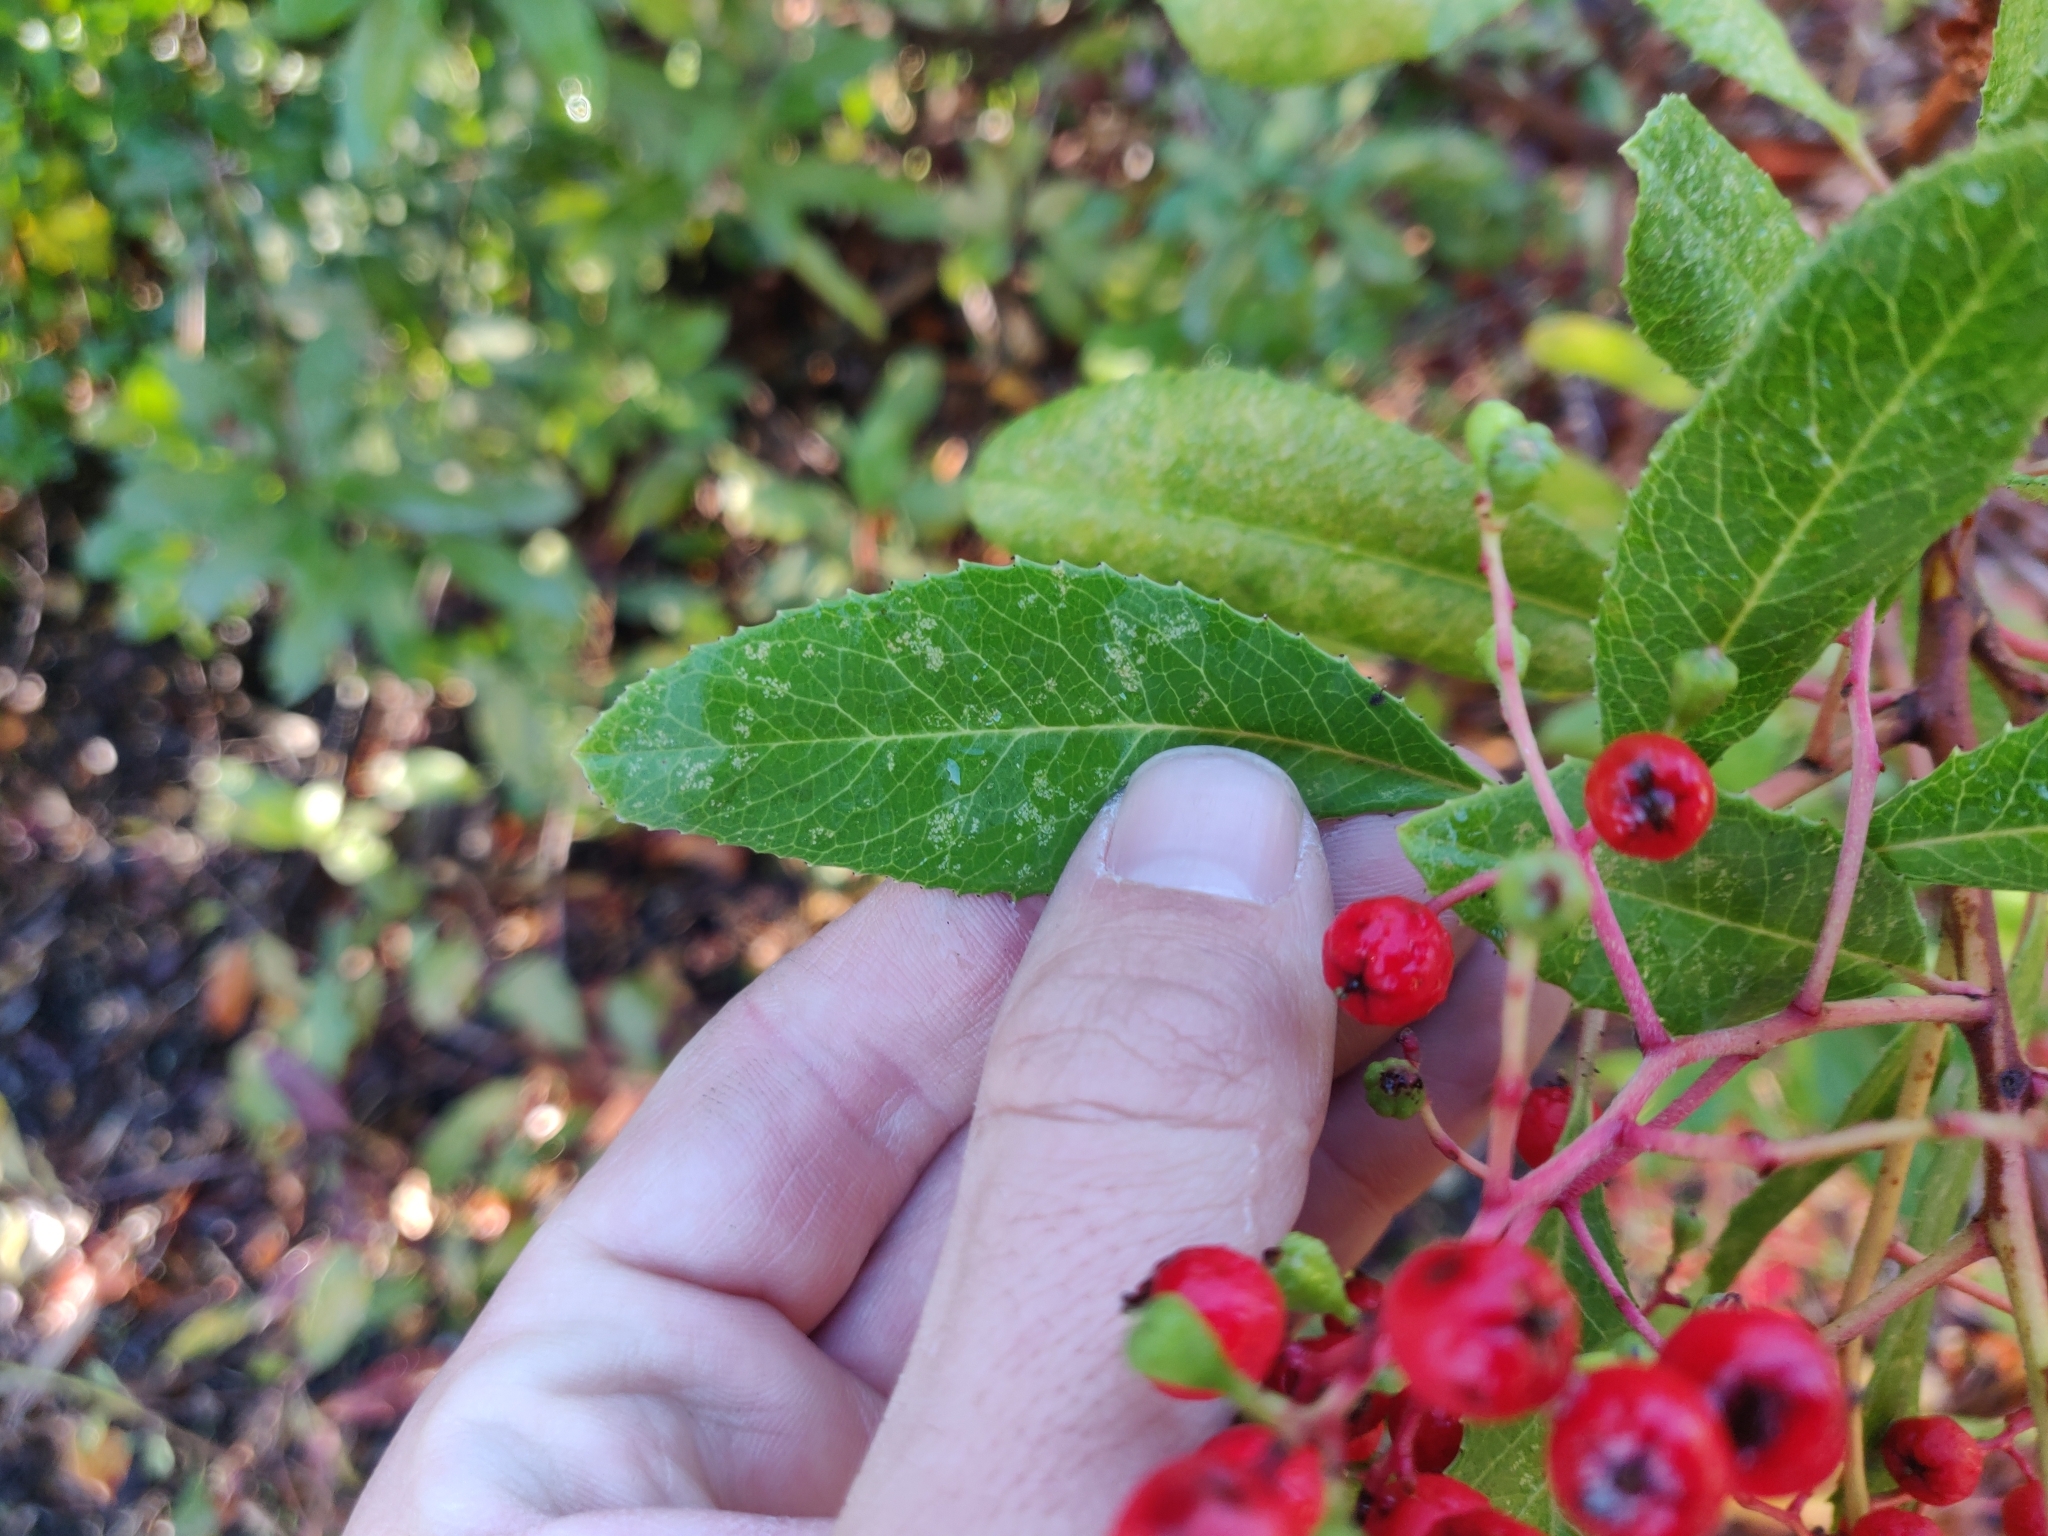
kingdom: Plantae
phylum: Tracheophyta
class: Magnoliopsida
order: Rosales
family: Rosaceae
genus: Heteromeles
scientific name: Heteromeles arbutifolia
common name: California-holly
